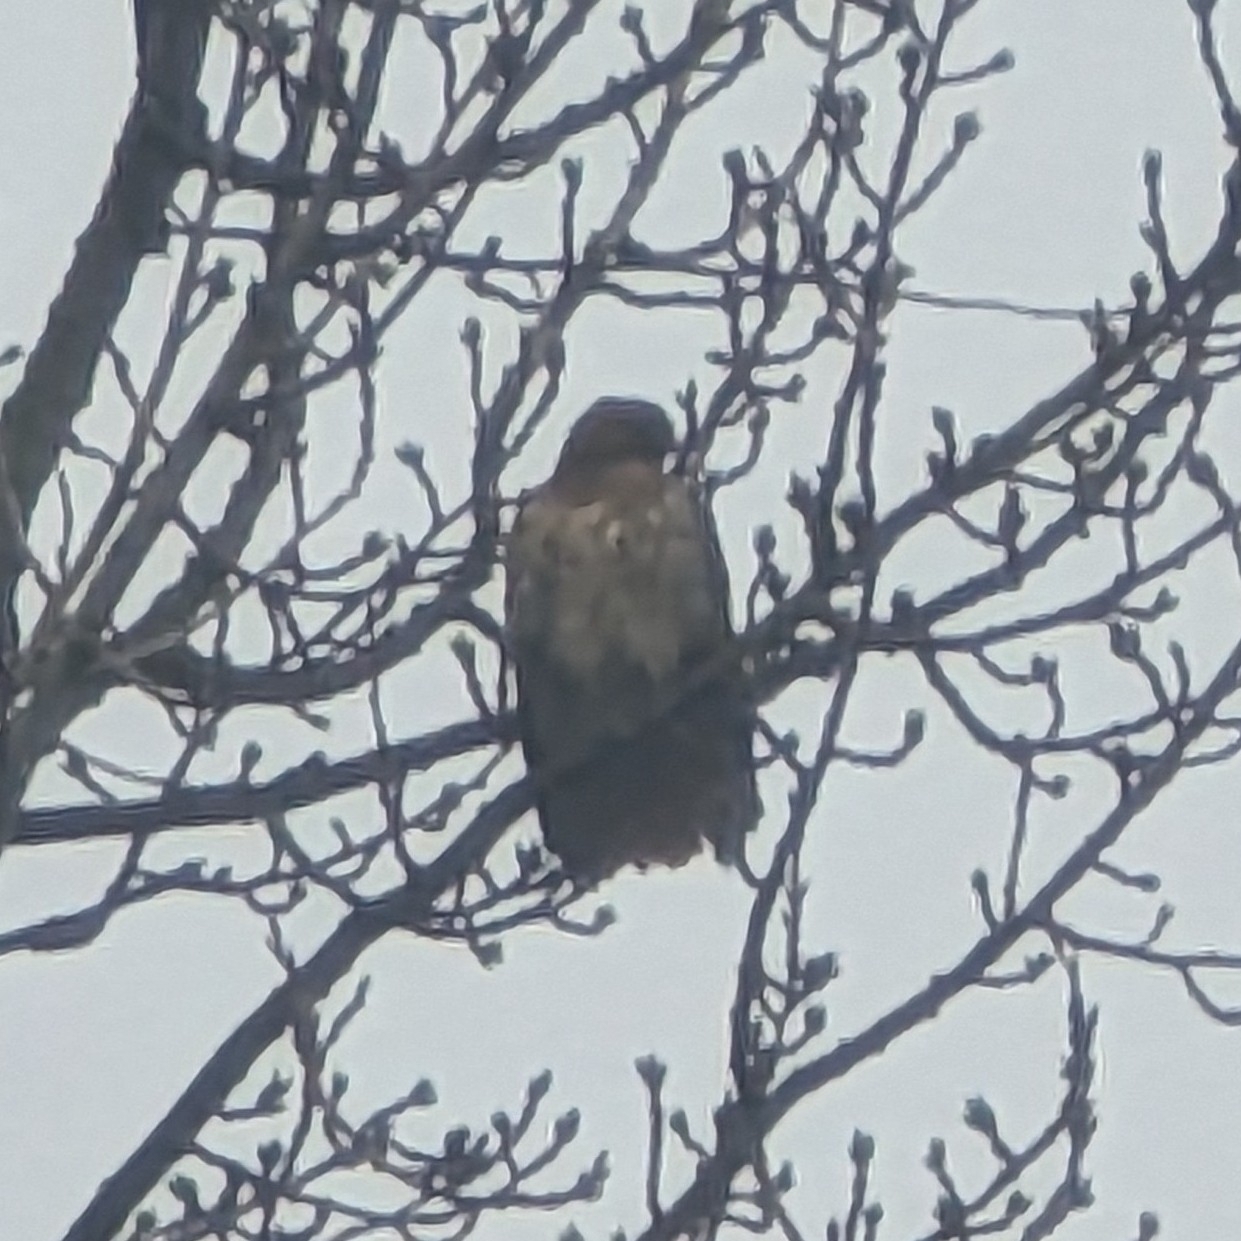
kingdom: Animalia
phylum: Chordata
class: Aves
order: Accipitriformes
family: Accipitridae
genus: Buteo
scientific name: Buteo jamaicensis
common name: Red-tailed hawk
